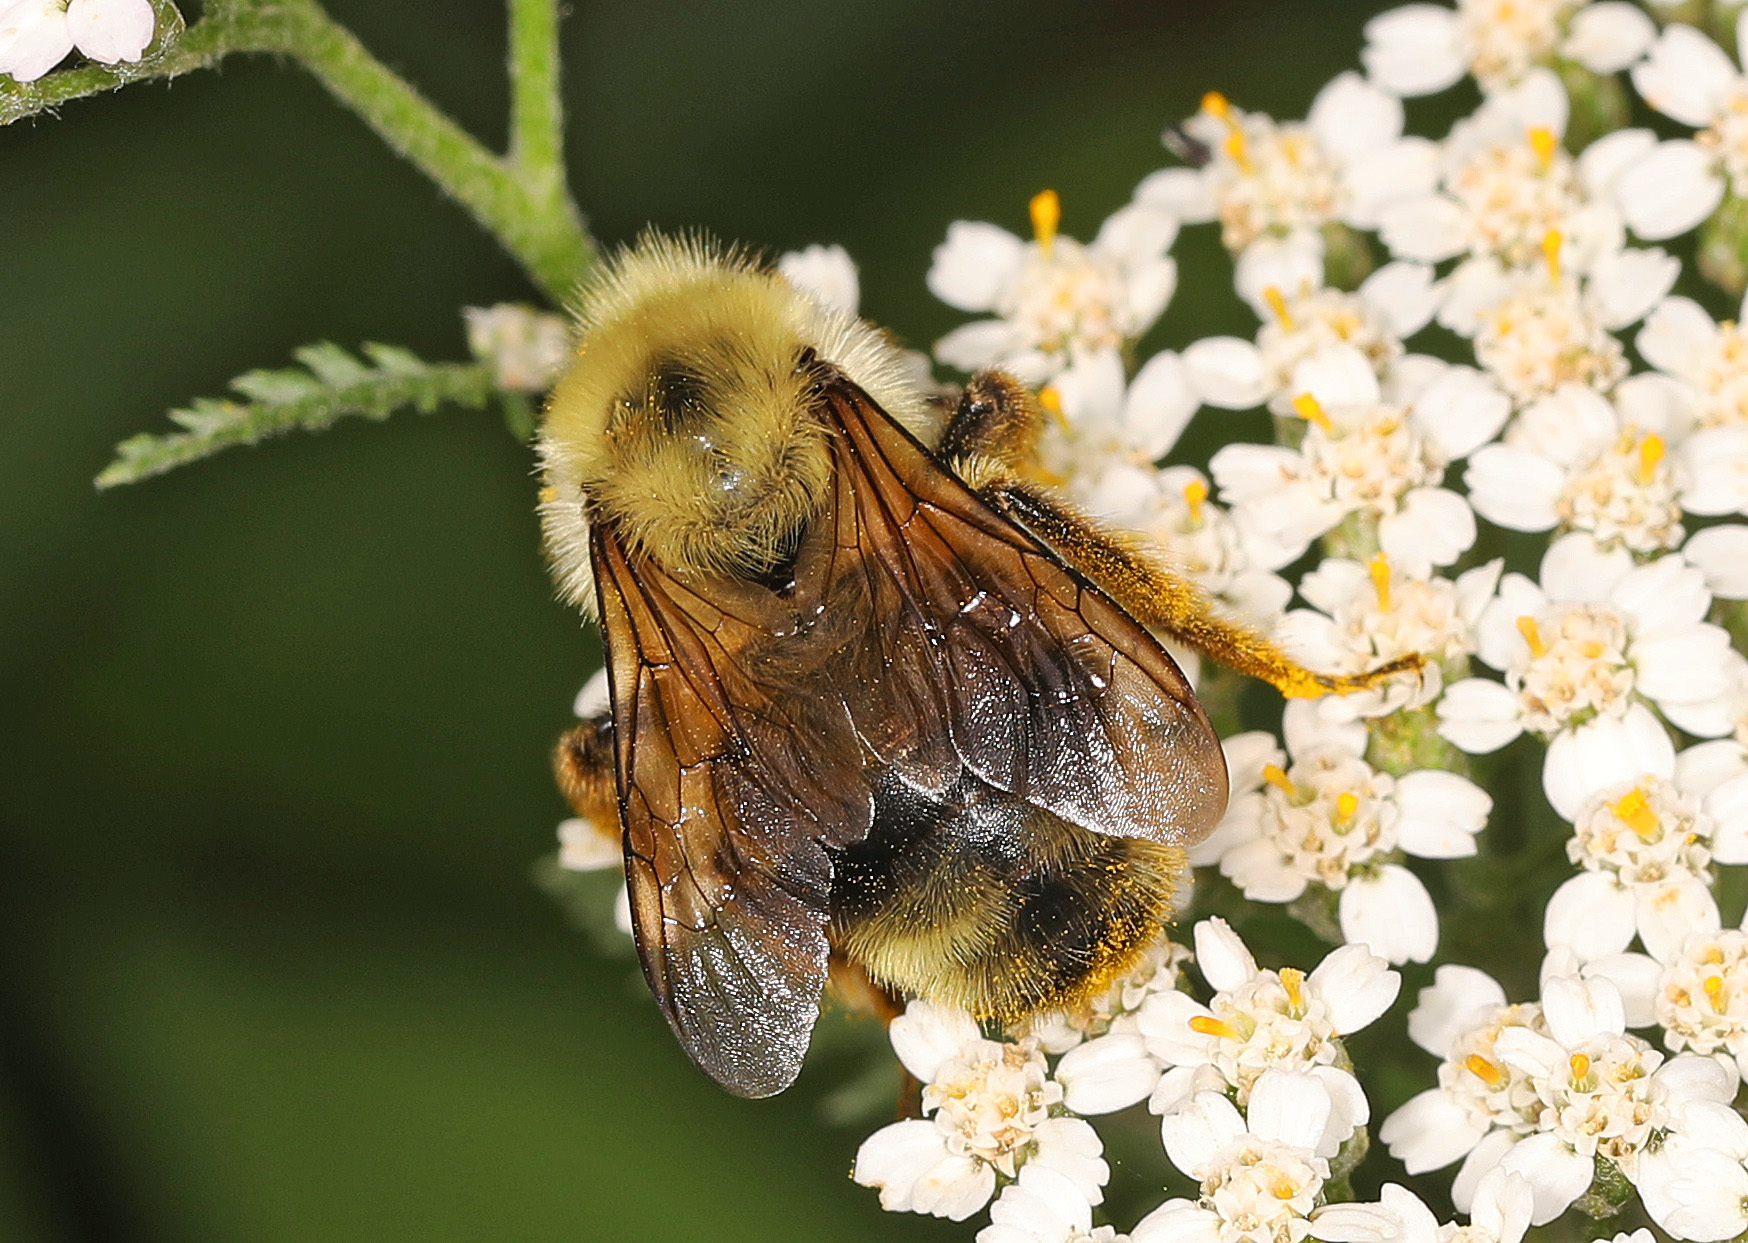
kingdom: Animalia
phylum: Arthropoda
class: Insecta
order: Hymenoptera
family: Apidae
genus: Bombus
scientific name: Bombus bimaculatus
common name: Two-spotted bumble bee
